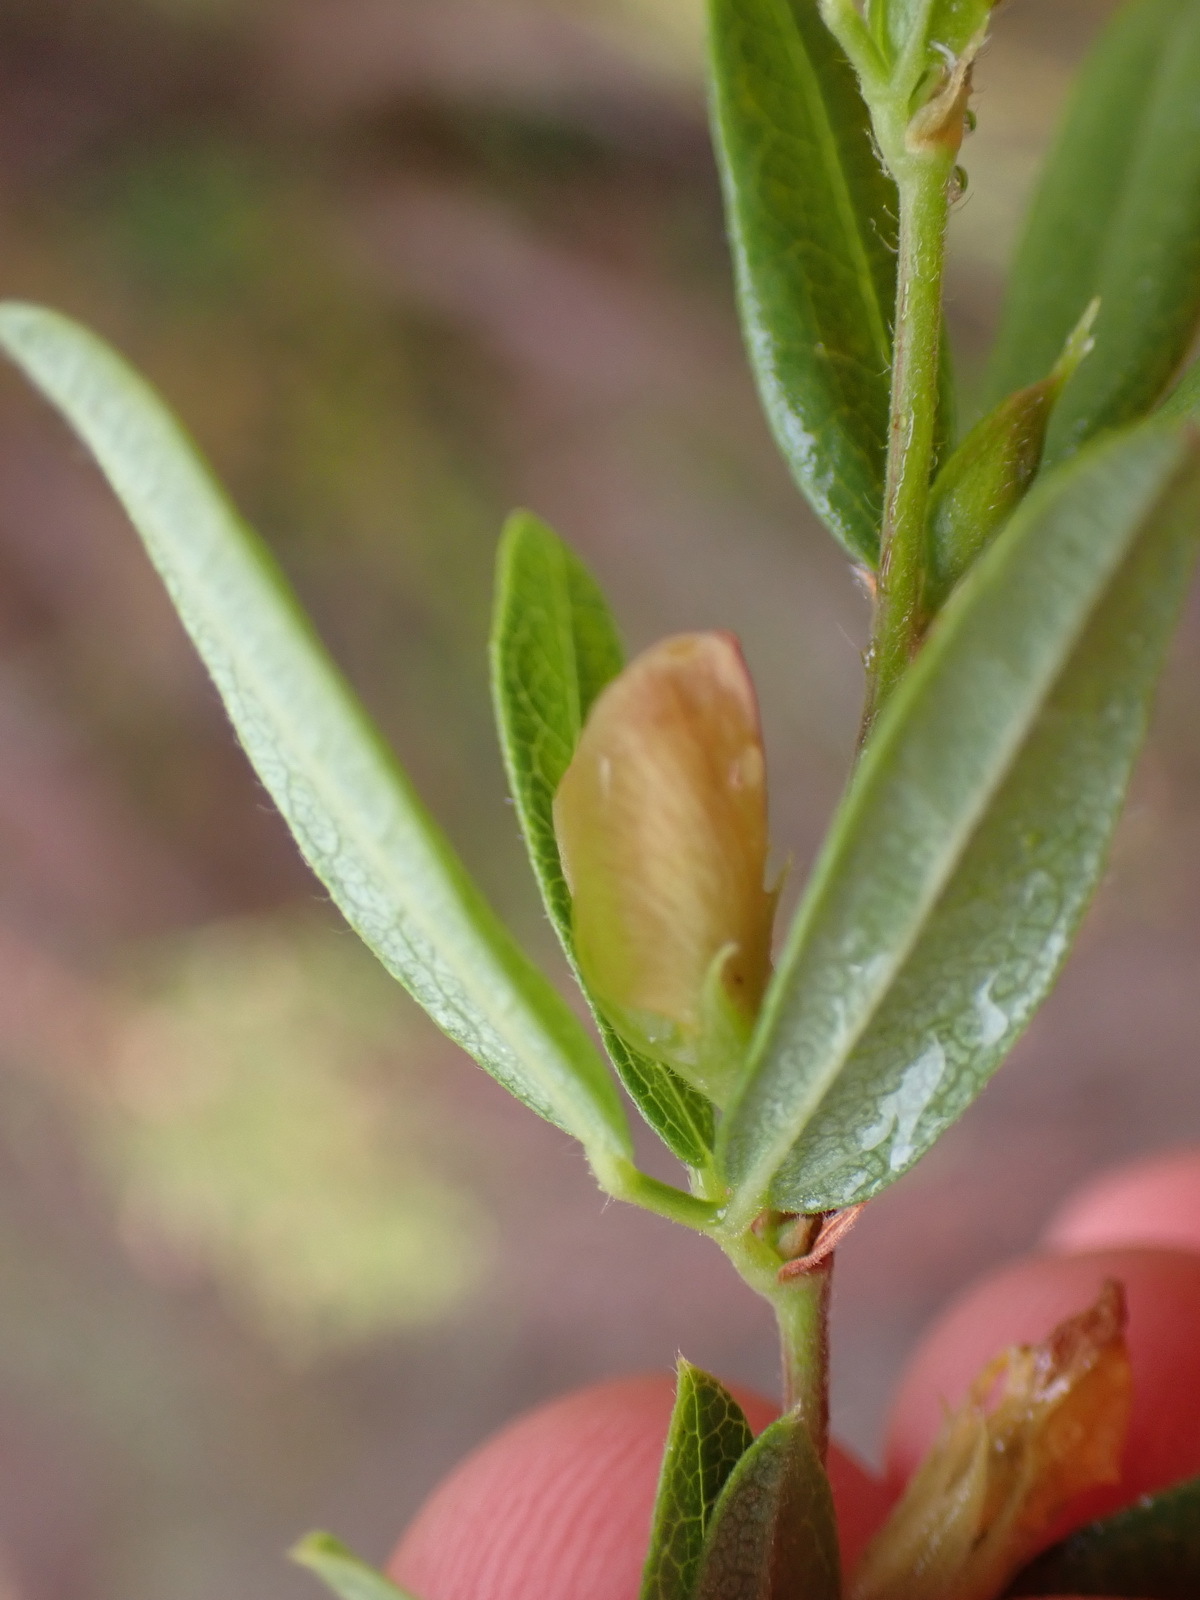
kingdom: Plantae
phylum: Tracheophyta
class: Magnoliopsida
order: Fabales
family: Fabaceae
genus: Rhynchosia
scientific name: Rhynchosia ciliata
